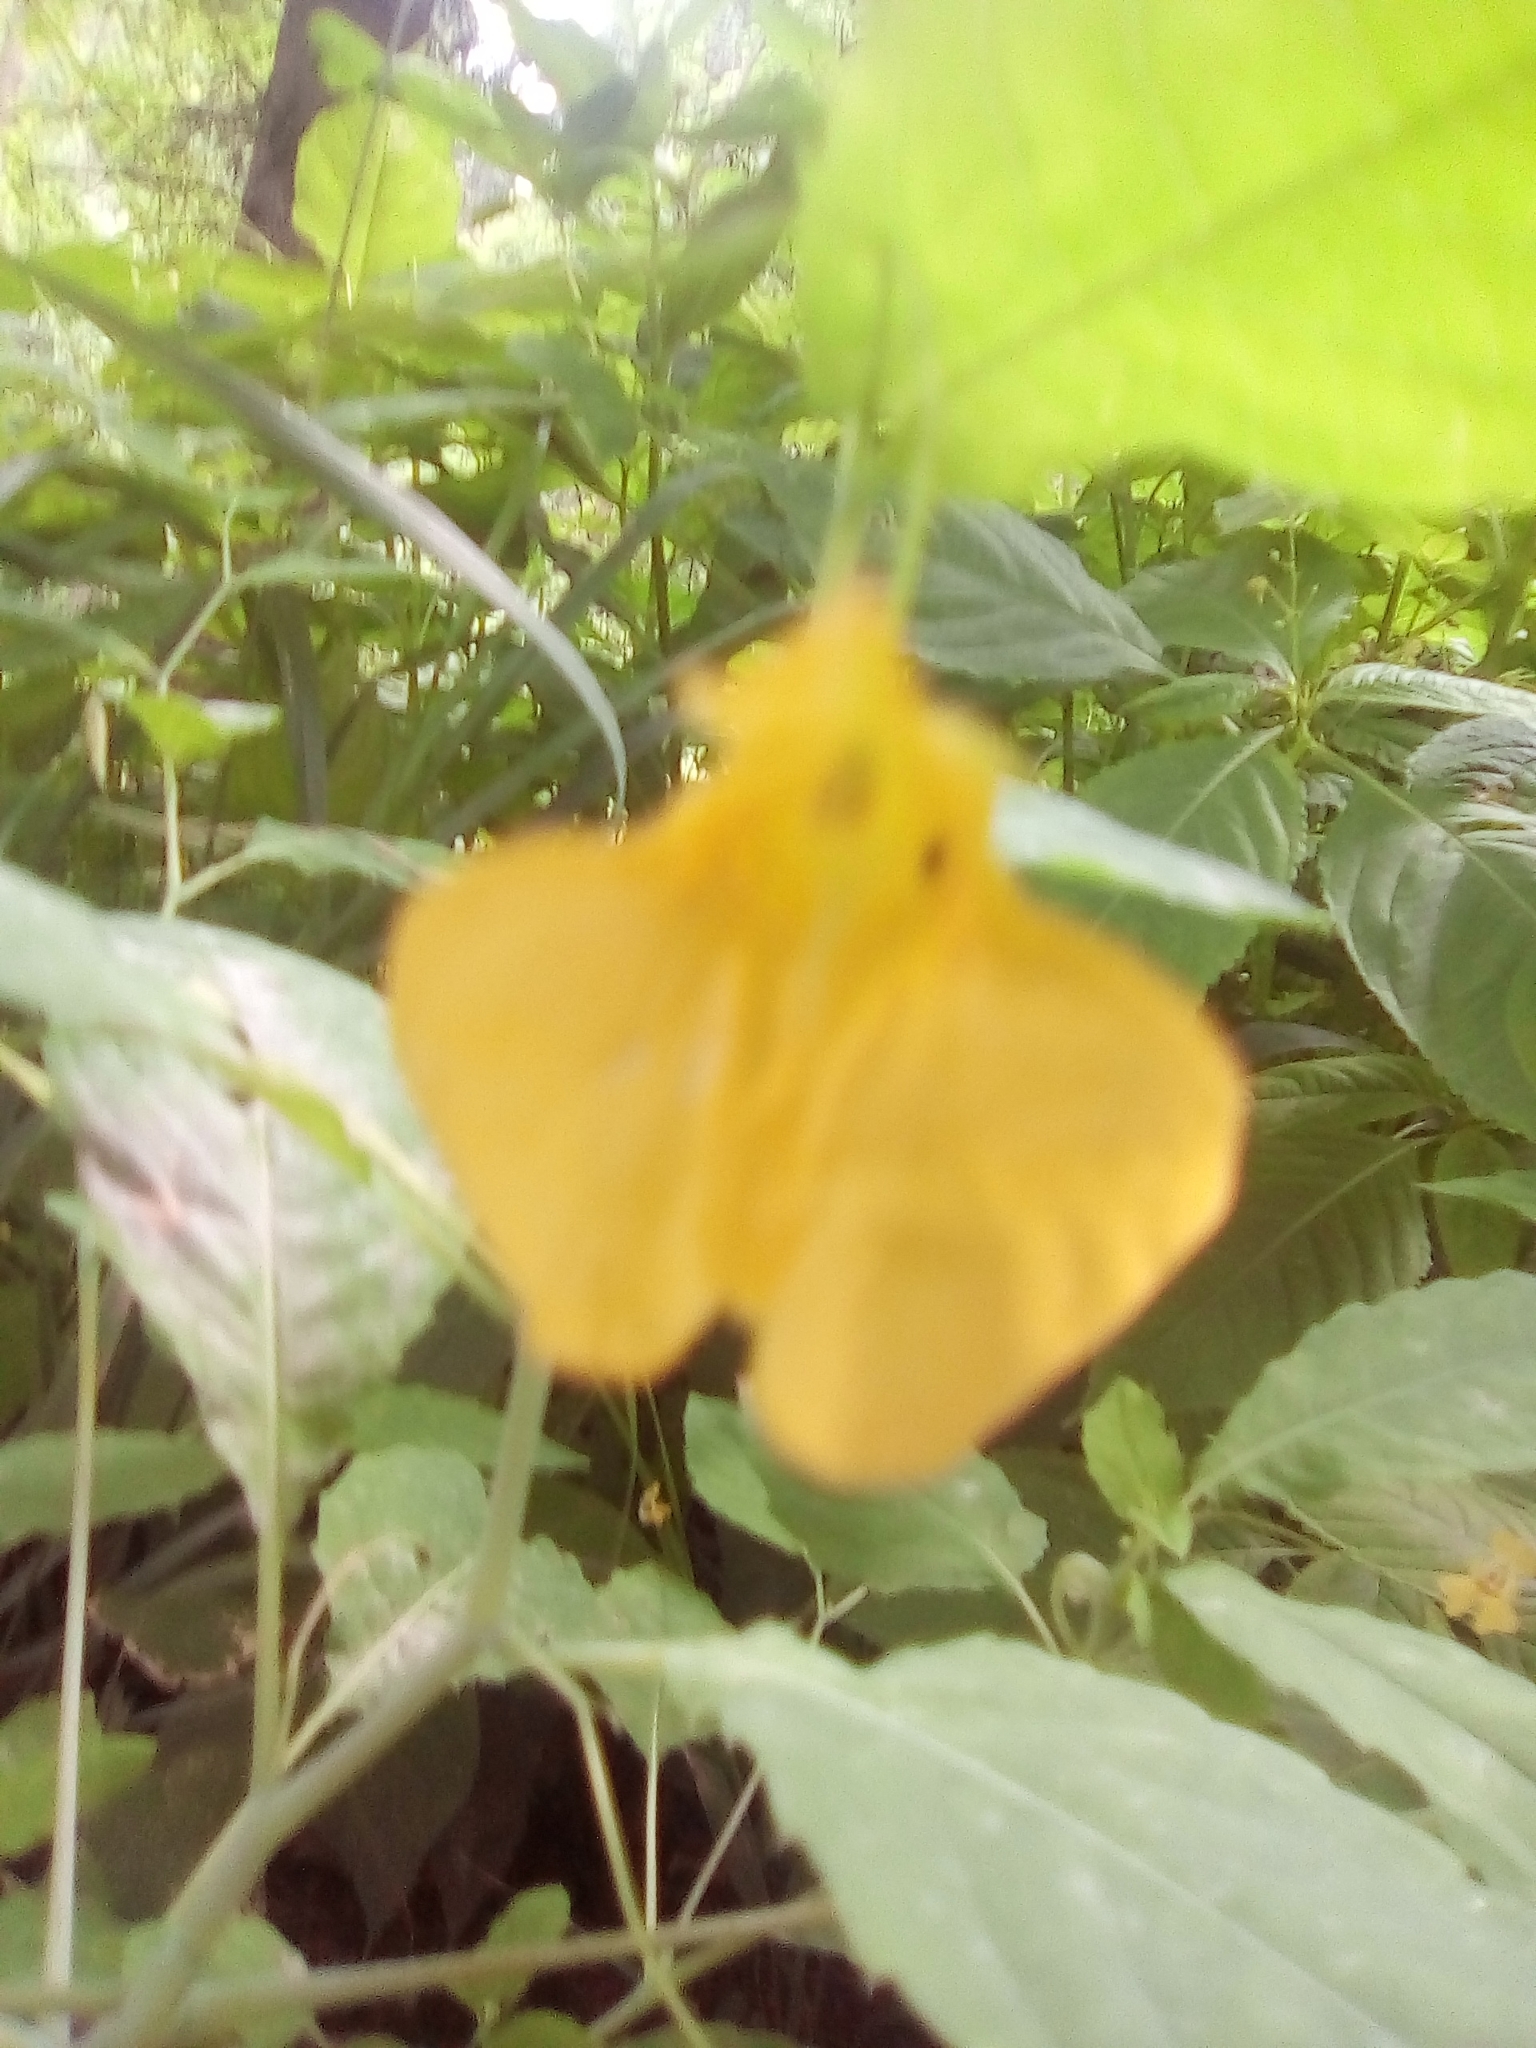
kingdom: Plantae
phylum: Tracheophyta
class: Magnoliopsida
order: Ericales
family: Balsaminaceae
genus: Impatiens
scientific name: Impatiens noli-tangere
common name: Touch-me-not balsam
